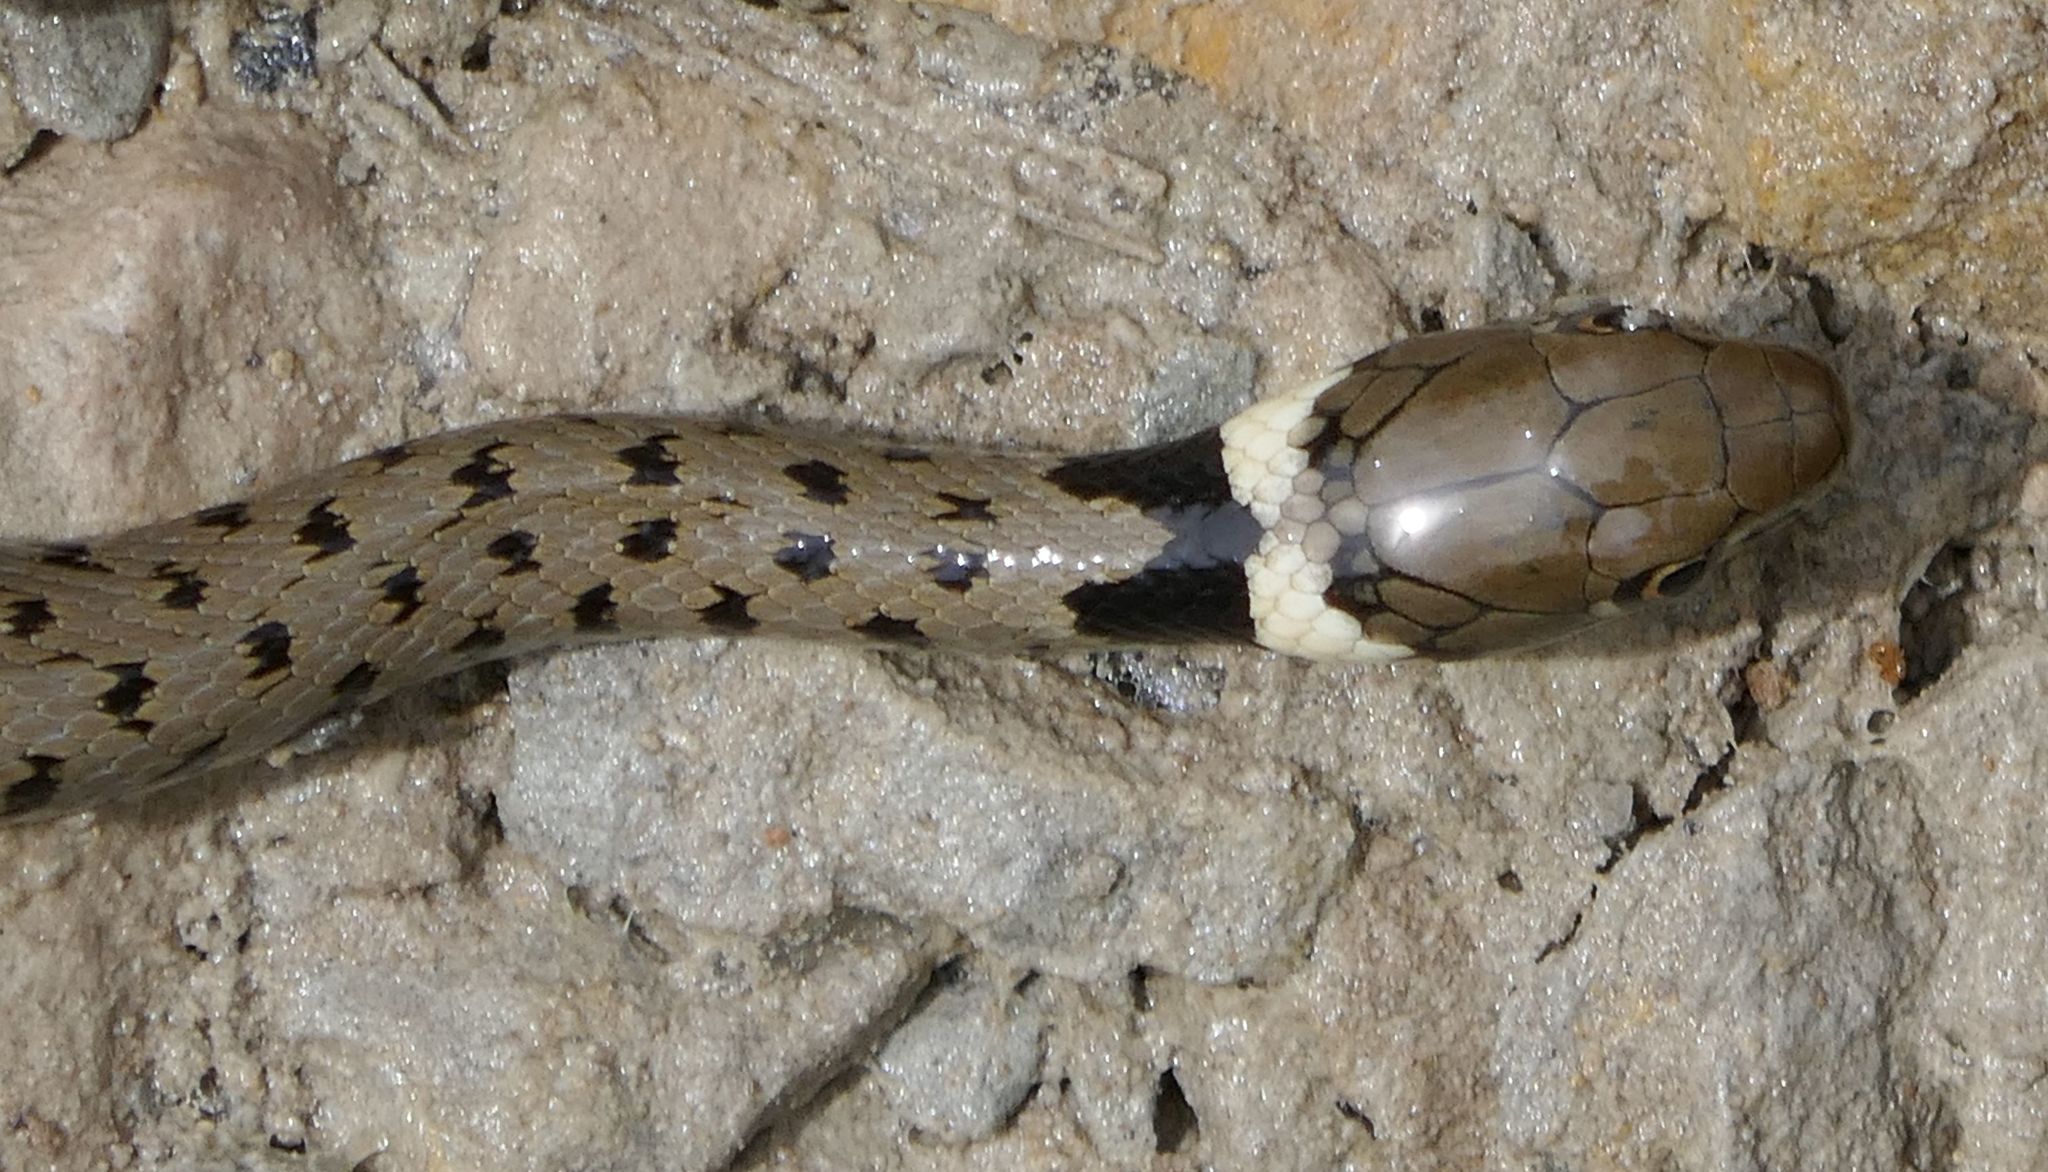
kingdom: Animalia
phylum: Chordata
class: Squamata
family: Colubridae
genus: Natrix
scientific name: Natrix helvetica
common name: Banded grass snake
